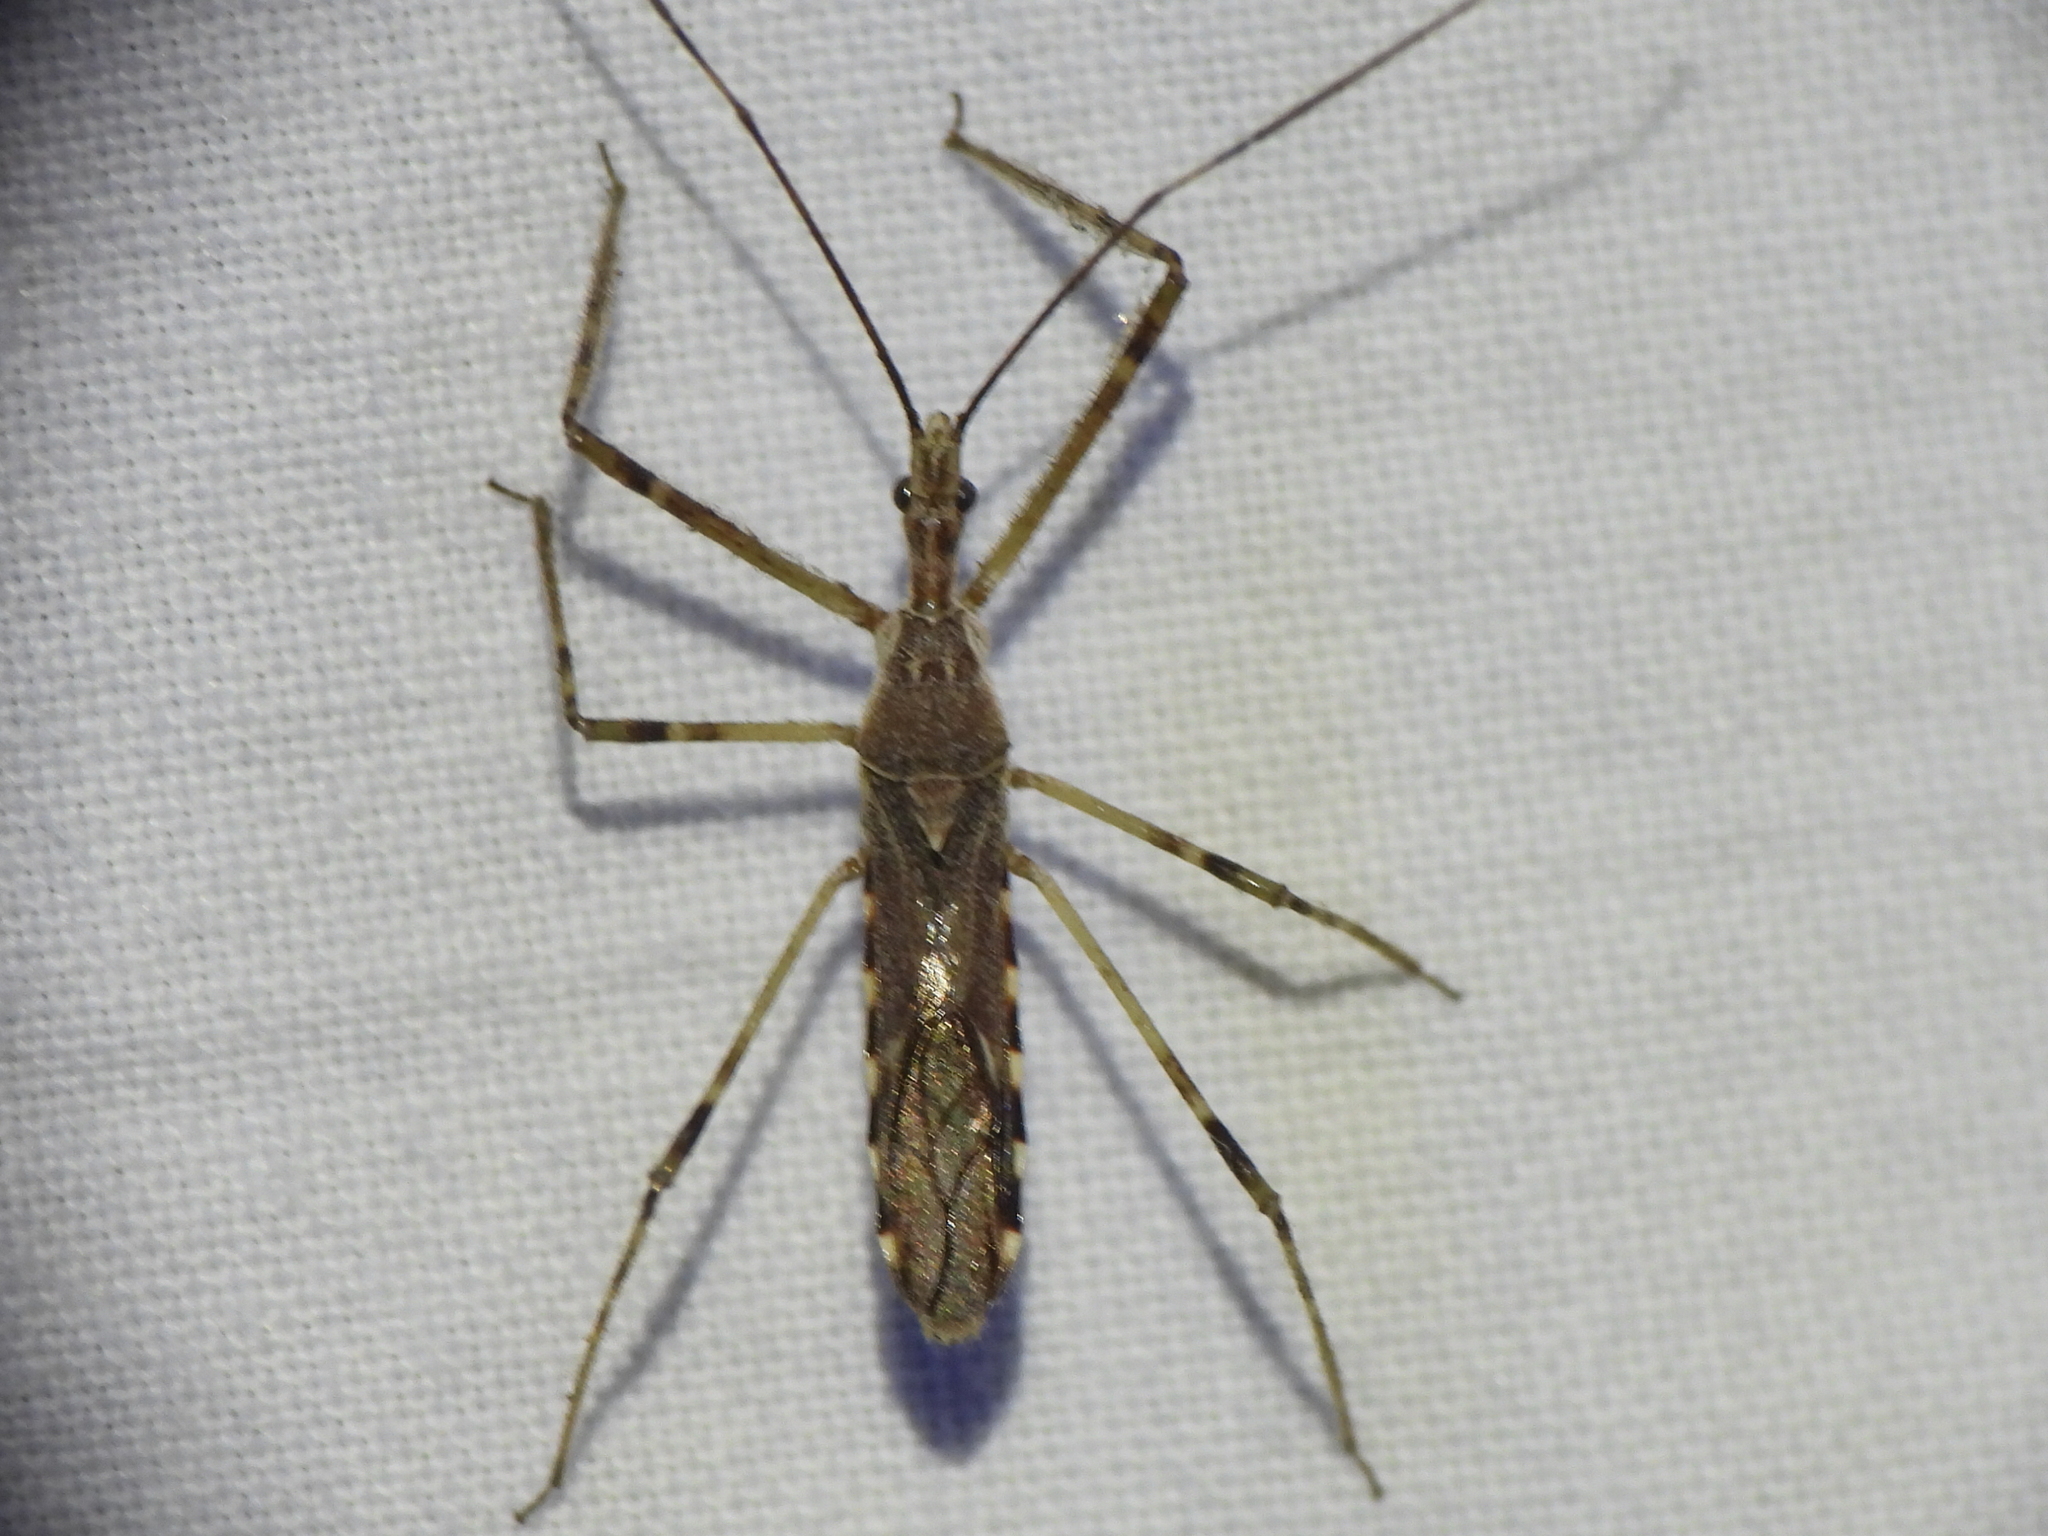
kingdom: Animalia
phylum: Arthropoda
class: Insecta
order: Hemiptera
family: Reduviidae
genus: Zelus
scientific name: Zelus tetracanthus
